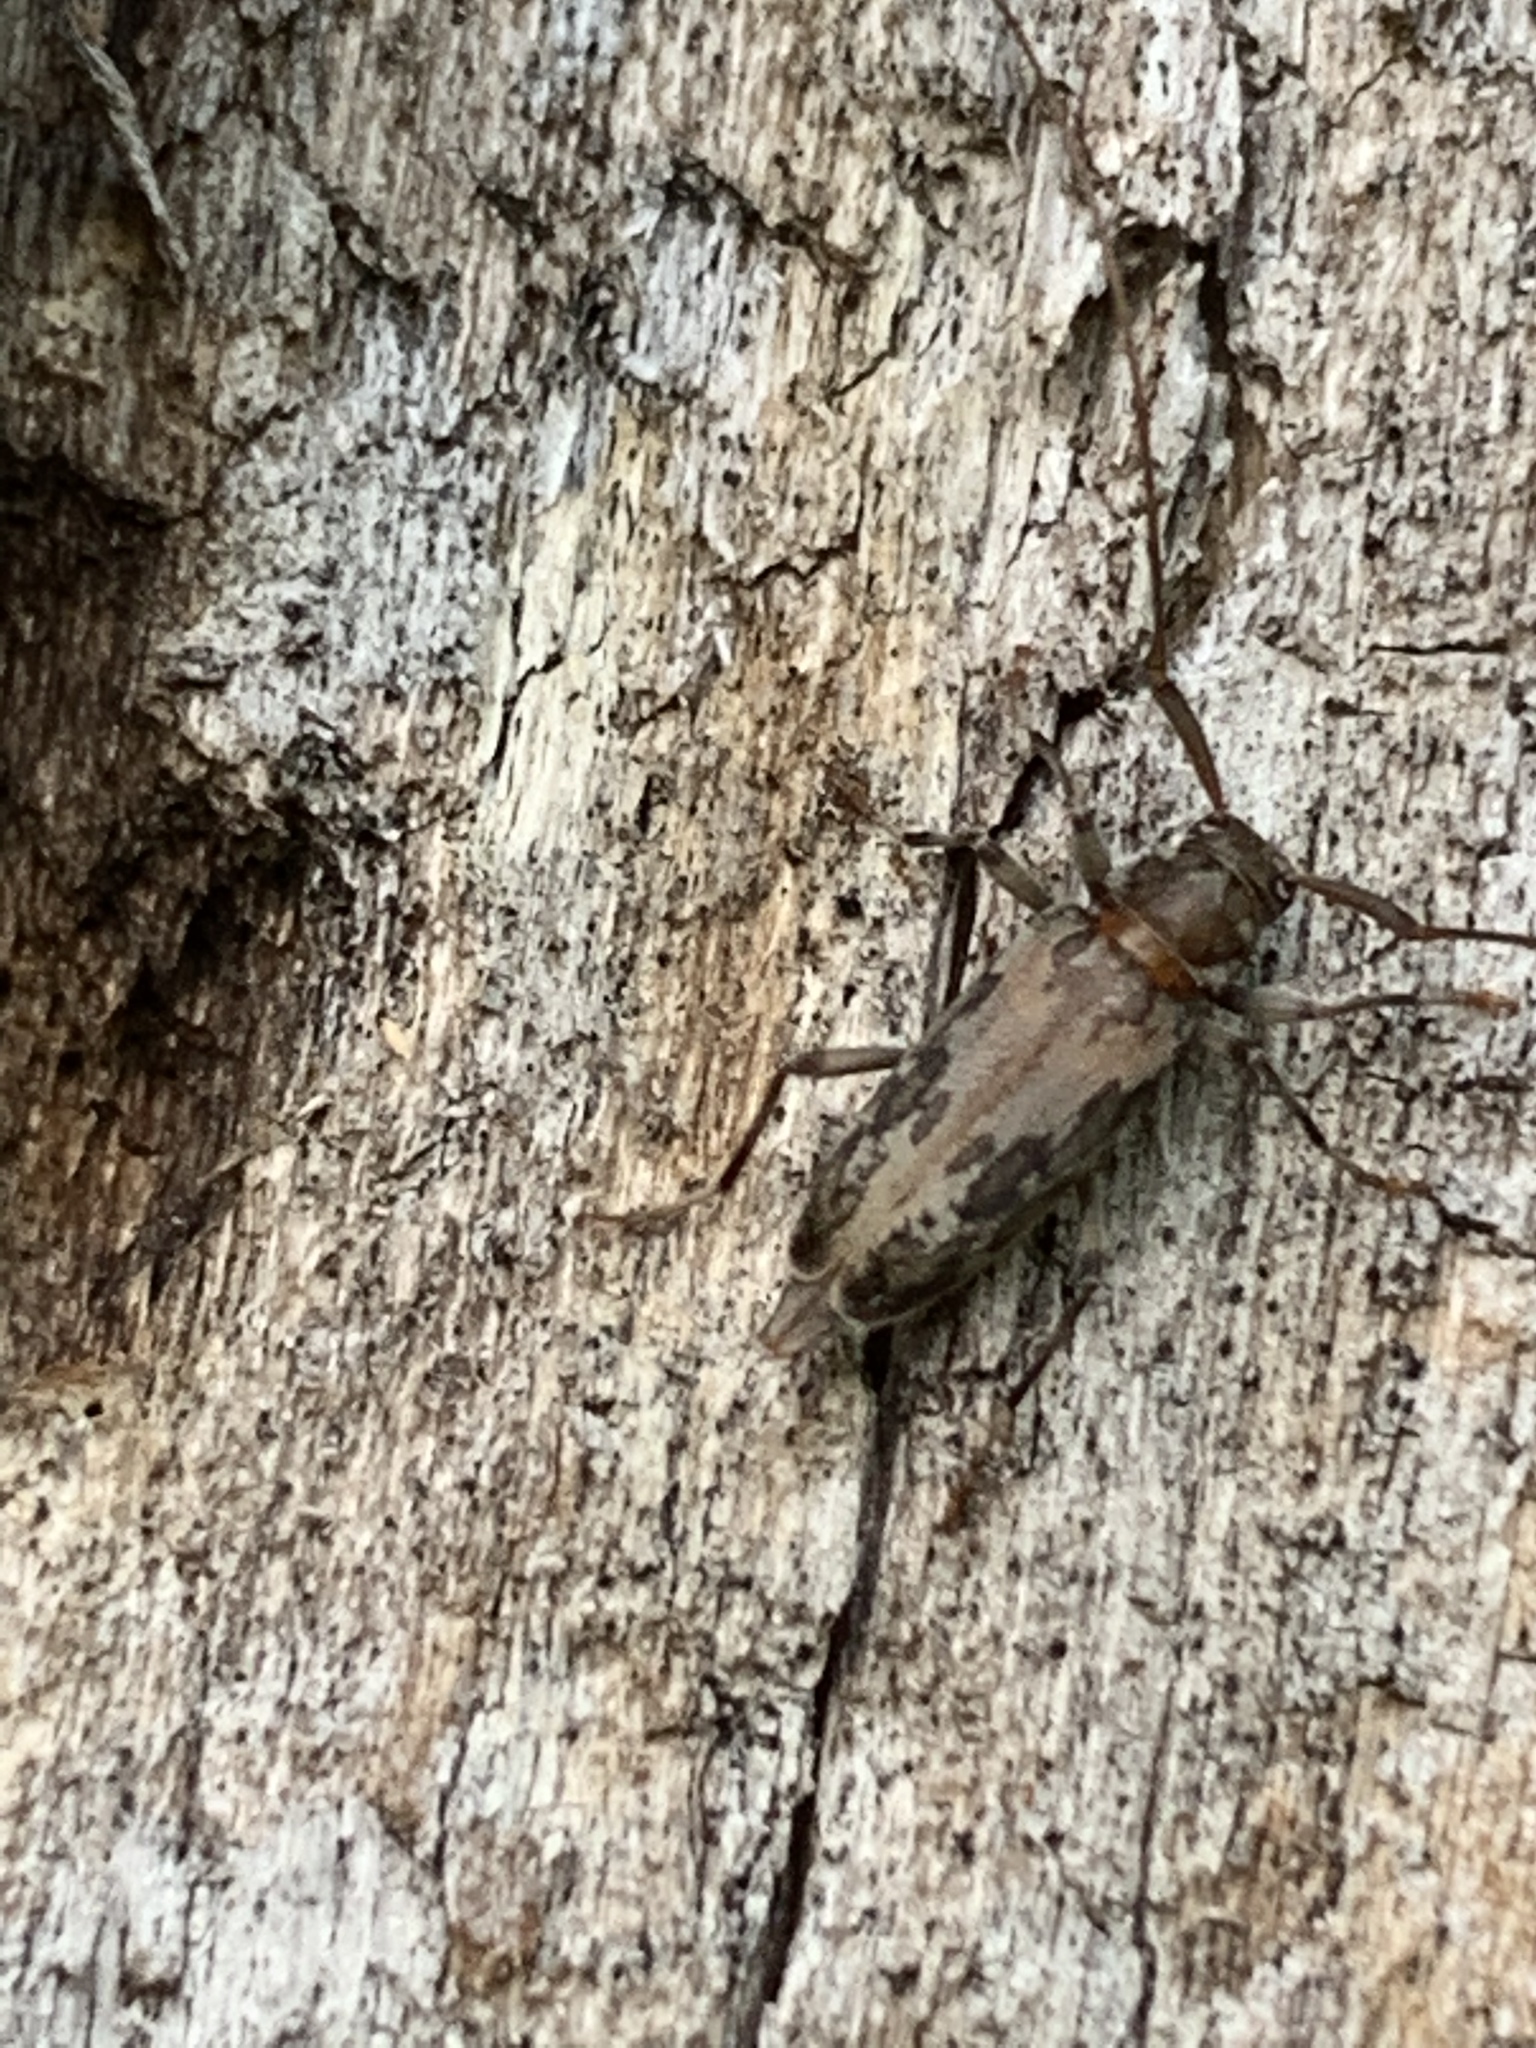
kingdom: Animalia
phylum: Arthropoda
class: Insecta
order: Coleoptera
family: Cerambycidae
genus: Lepturges
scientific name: Lepturges confluens
